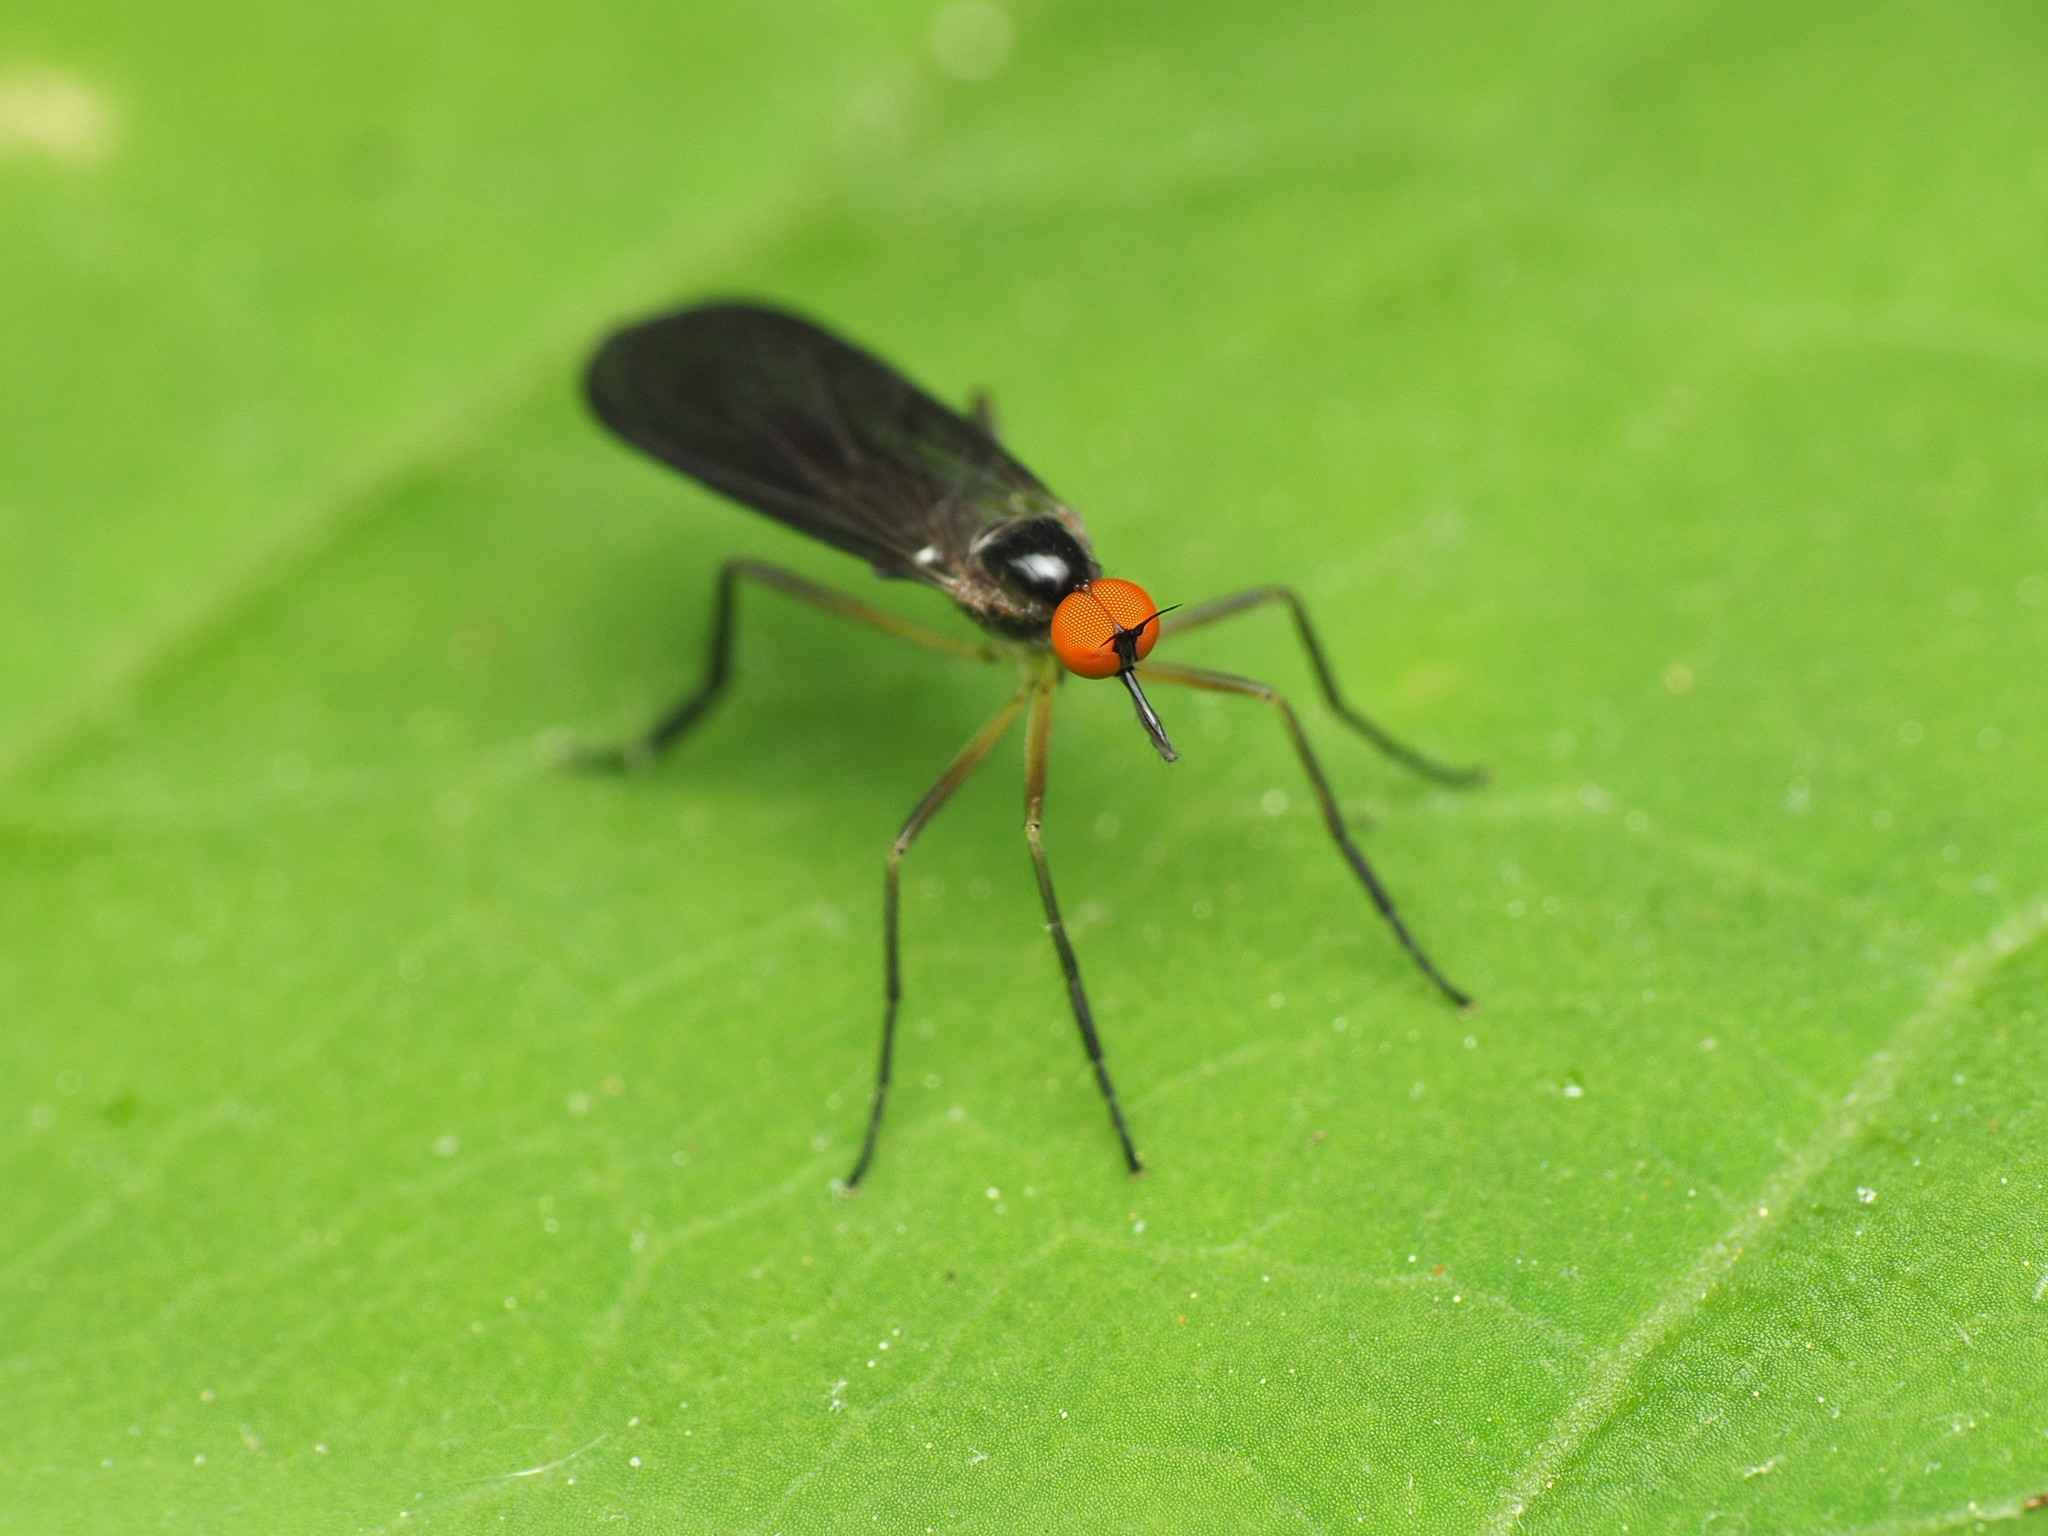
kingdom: Animalia
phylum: Arthropoda
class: Insecta
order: Diptera
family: Empididae
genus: Rhamphomyia
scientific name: Rhamphomyia longicauda
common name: Long-tailed dance fly
